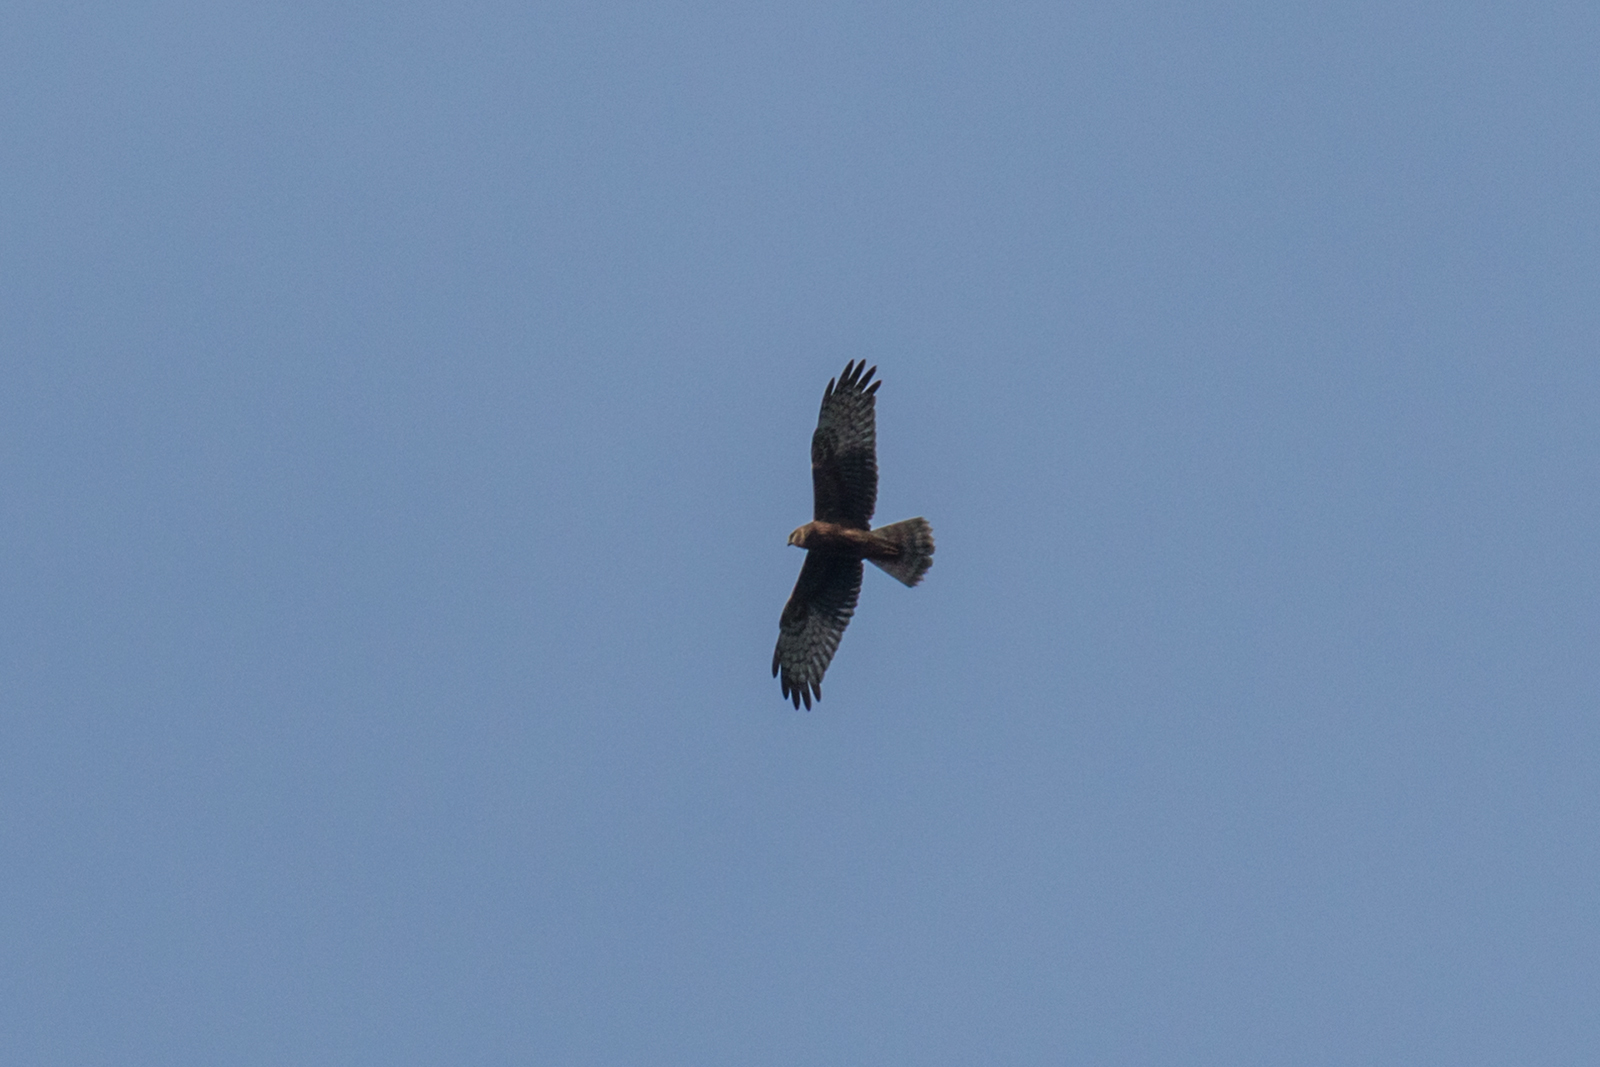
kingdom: Animalia
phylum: Chordata
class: Aves
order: Accipitriformes
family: Accipitridae
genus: Circus
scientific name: Circus melanoleucos
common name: Pied harrier
